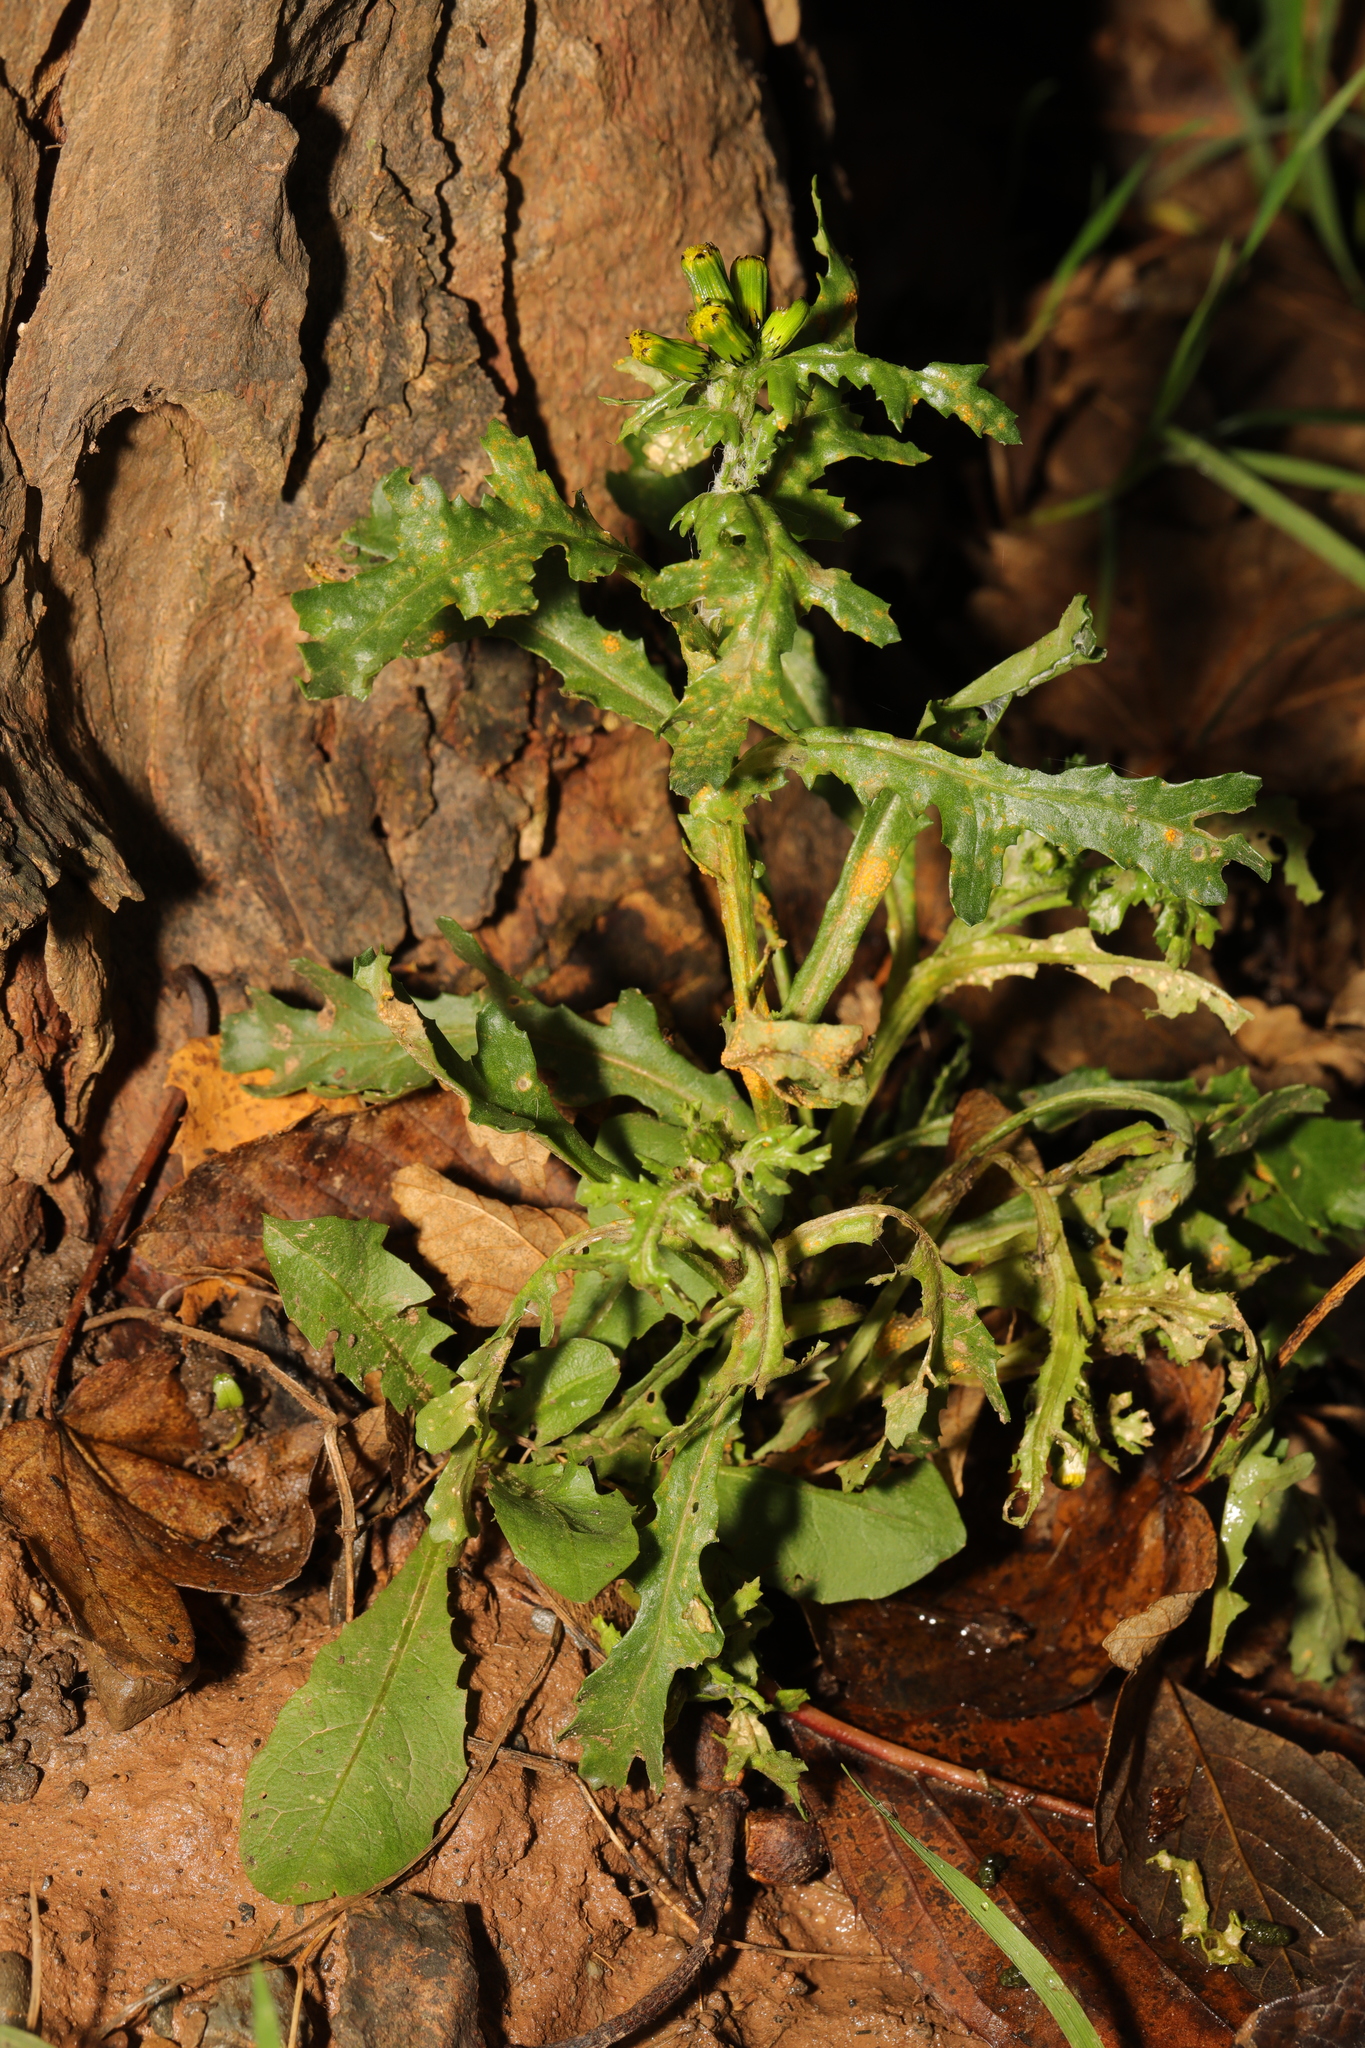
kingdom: Plantae
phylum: Tracheophyta
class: Magnoliopsida
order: Asterales
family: Asteraceae
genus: Senecio
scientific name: Senecio vulgaris
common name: Old-man-in-the-spring
